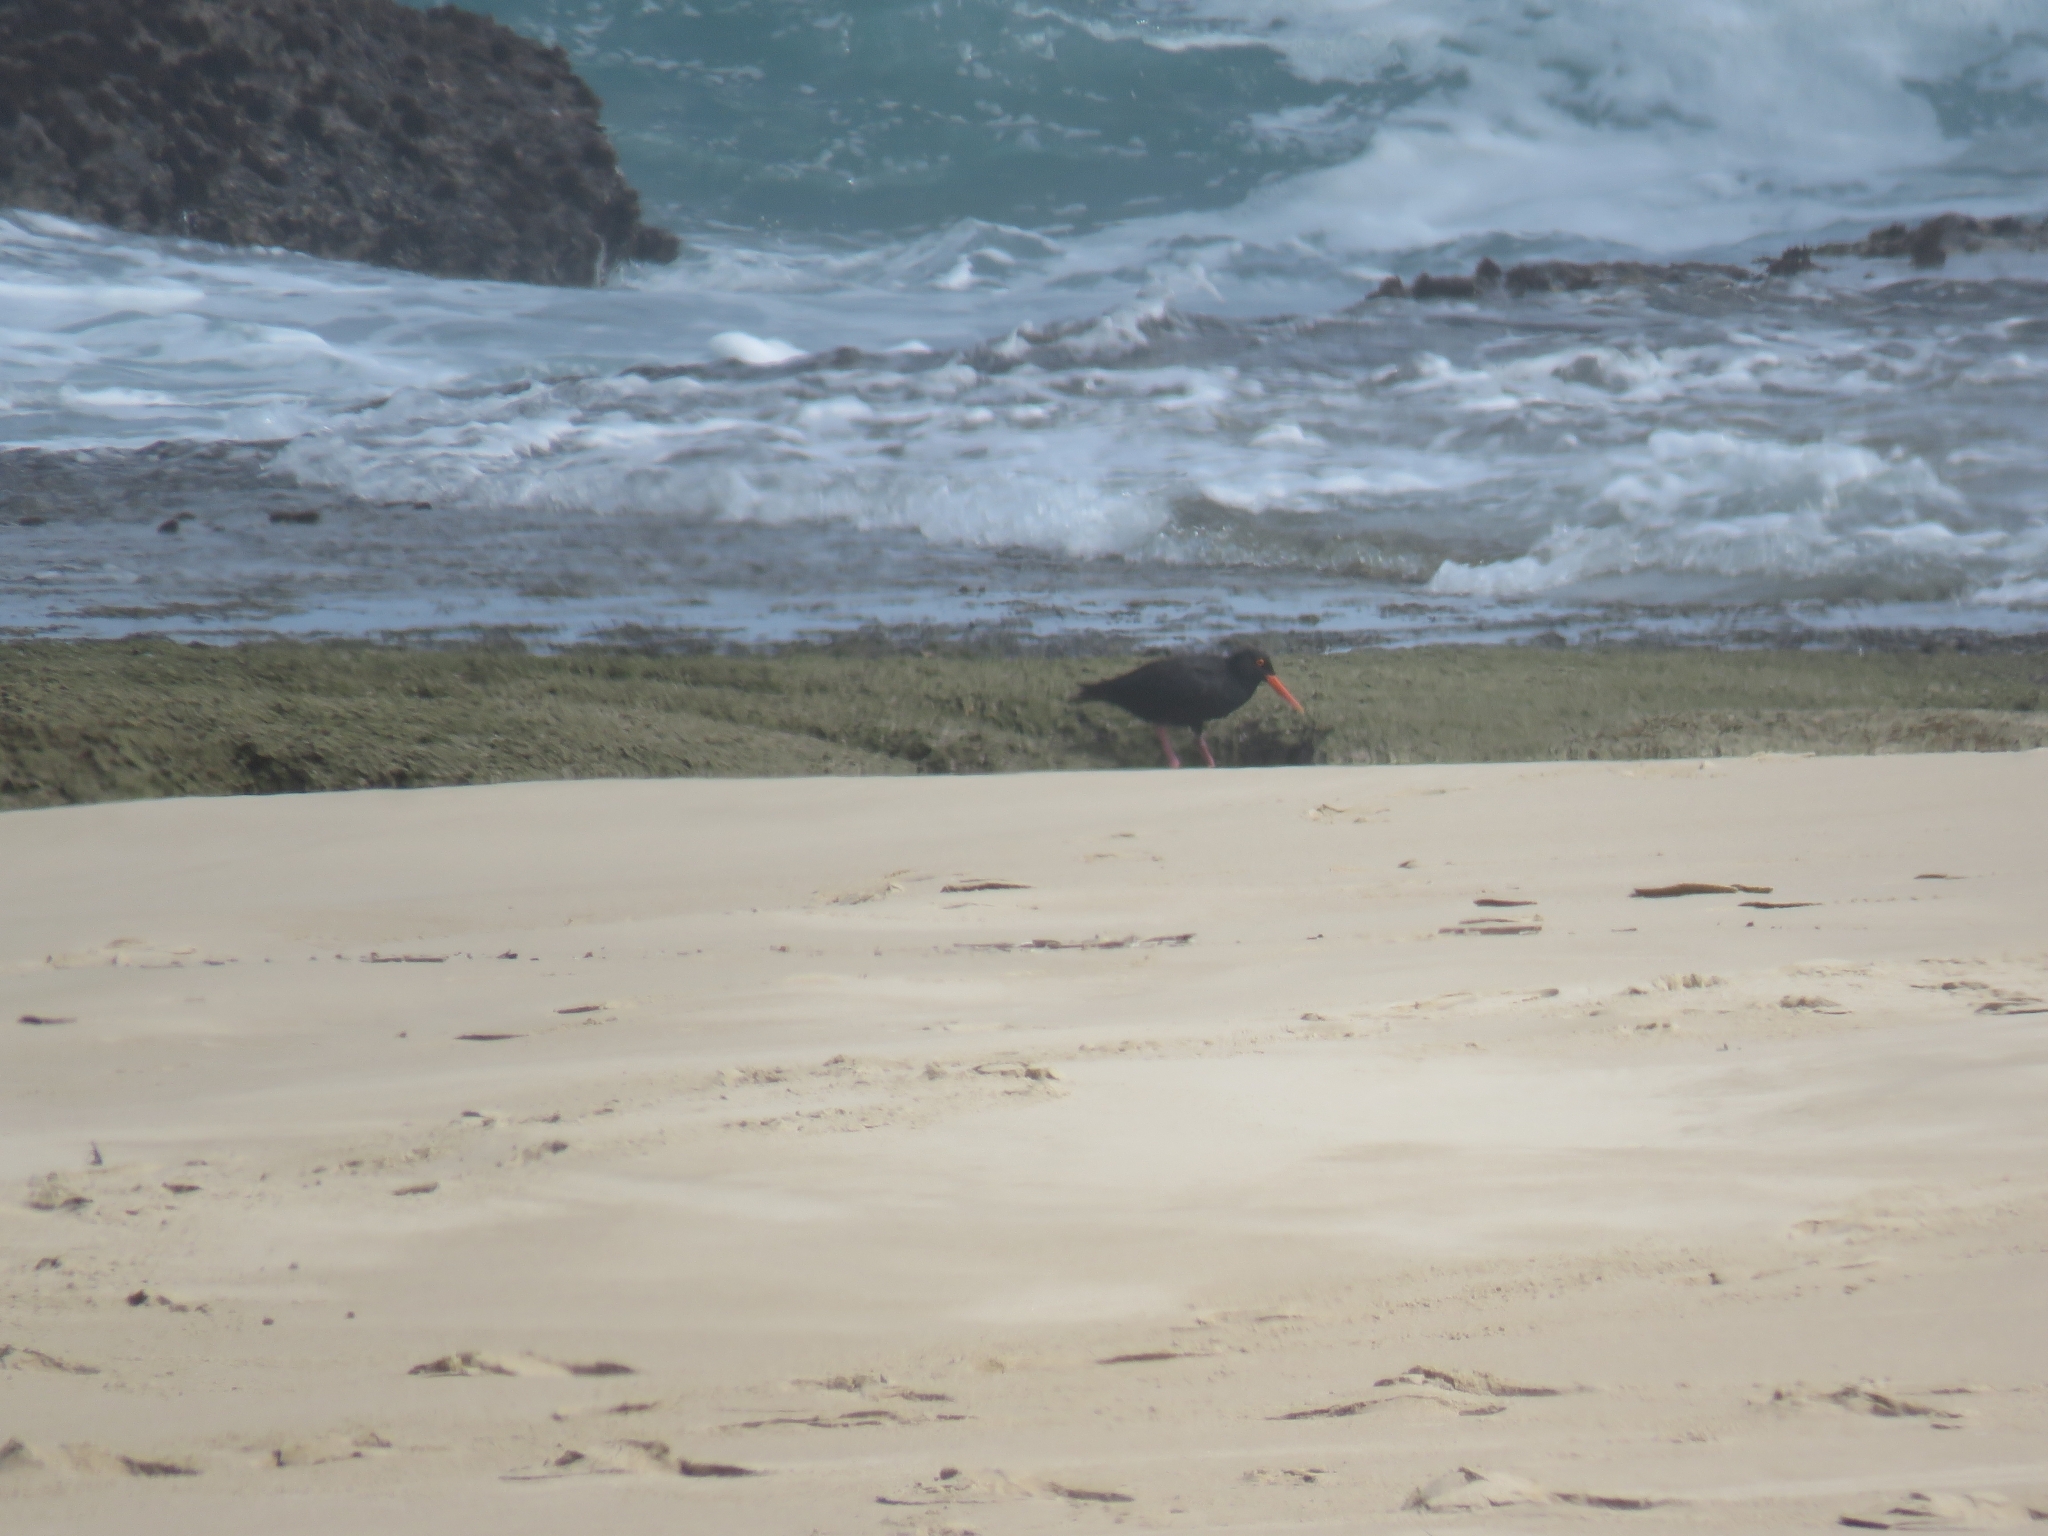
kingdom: Animalia
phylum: Chordata
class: Aves
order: Charadriiformes
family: Haematopodidae
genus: Haematopus
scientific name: Haematopus moquini
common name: African oystercatcher
